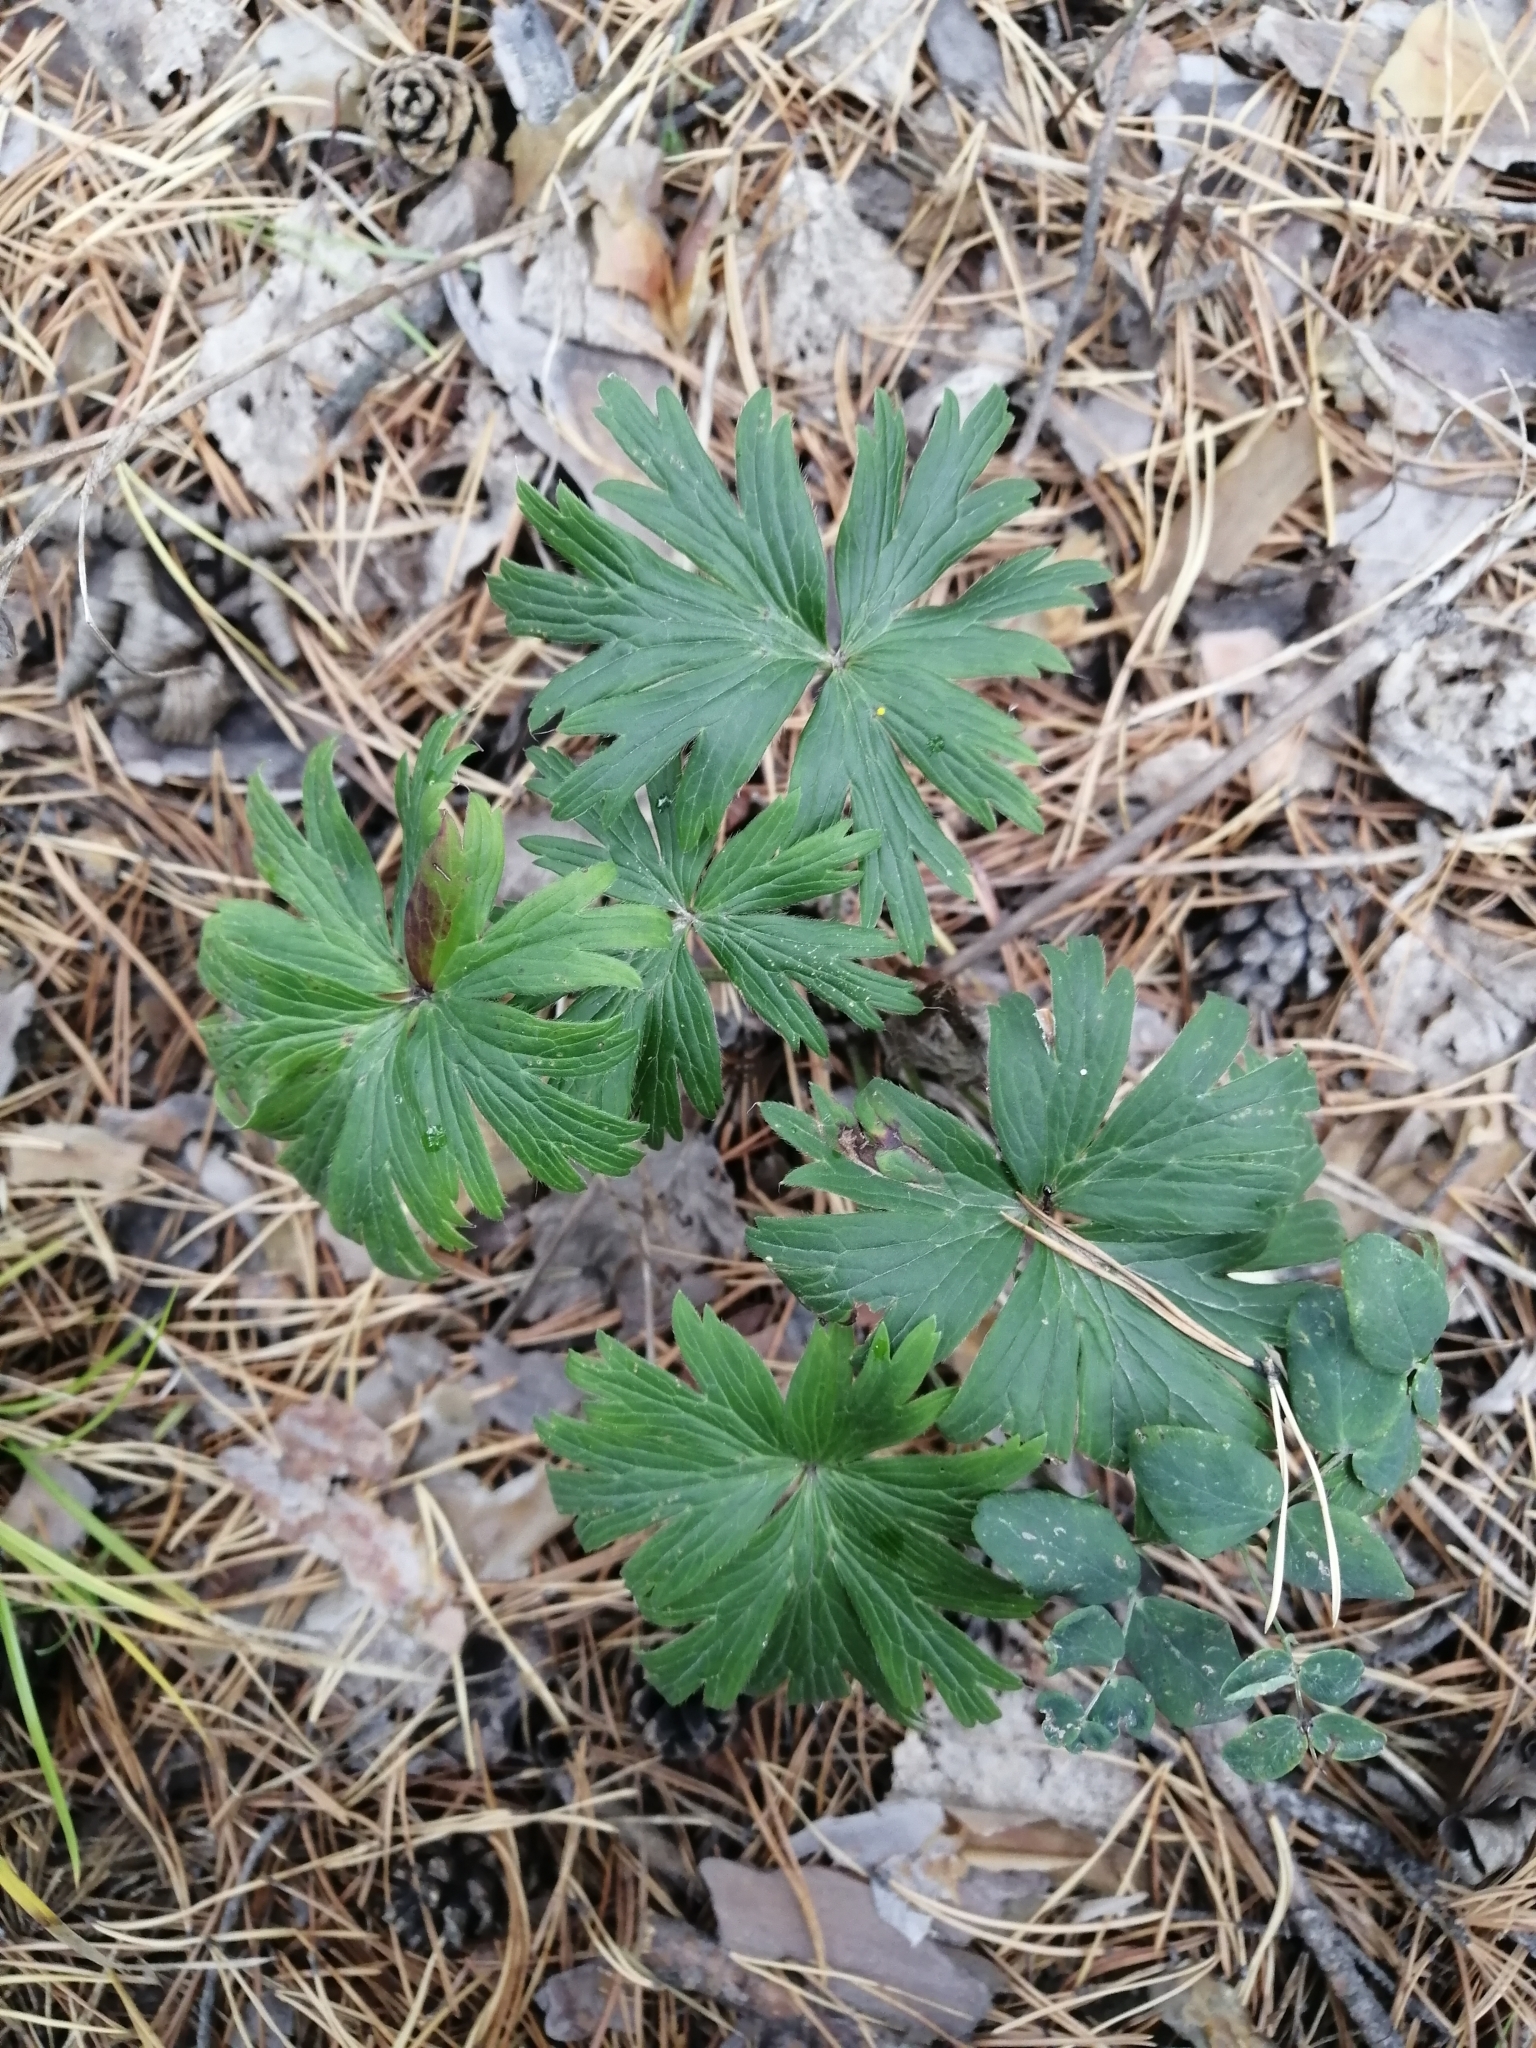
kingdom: Plantae
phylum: Tracheophyta
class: Magnoliopsida
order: Ranunculales
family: Ranunculaceae
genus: Pulsatilla
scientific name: Pulsatilla patens
